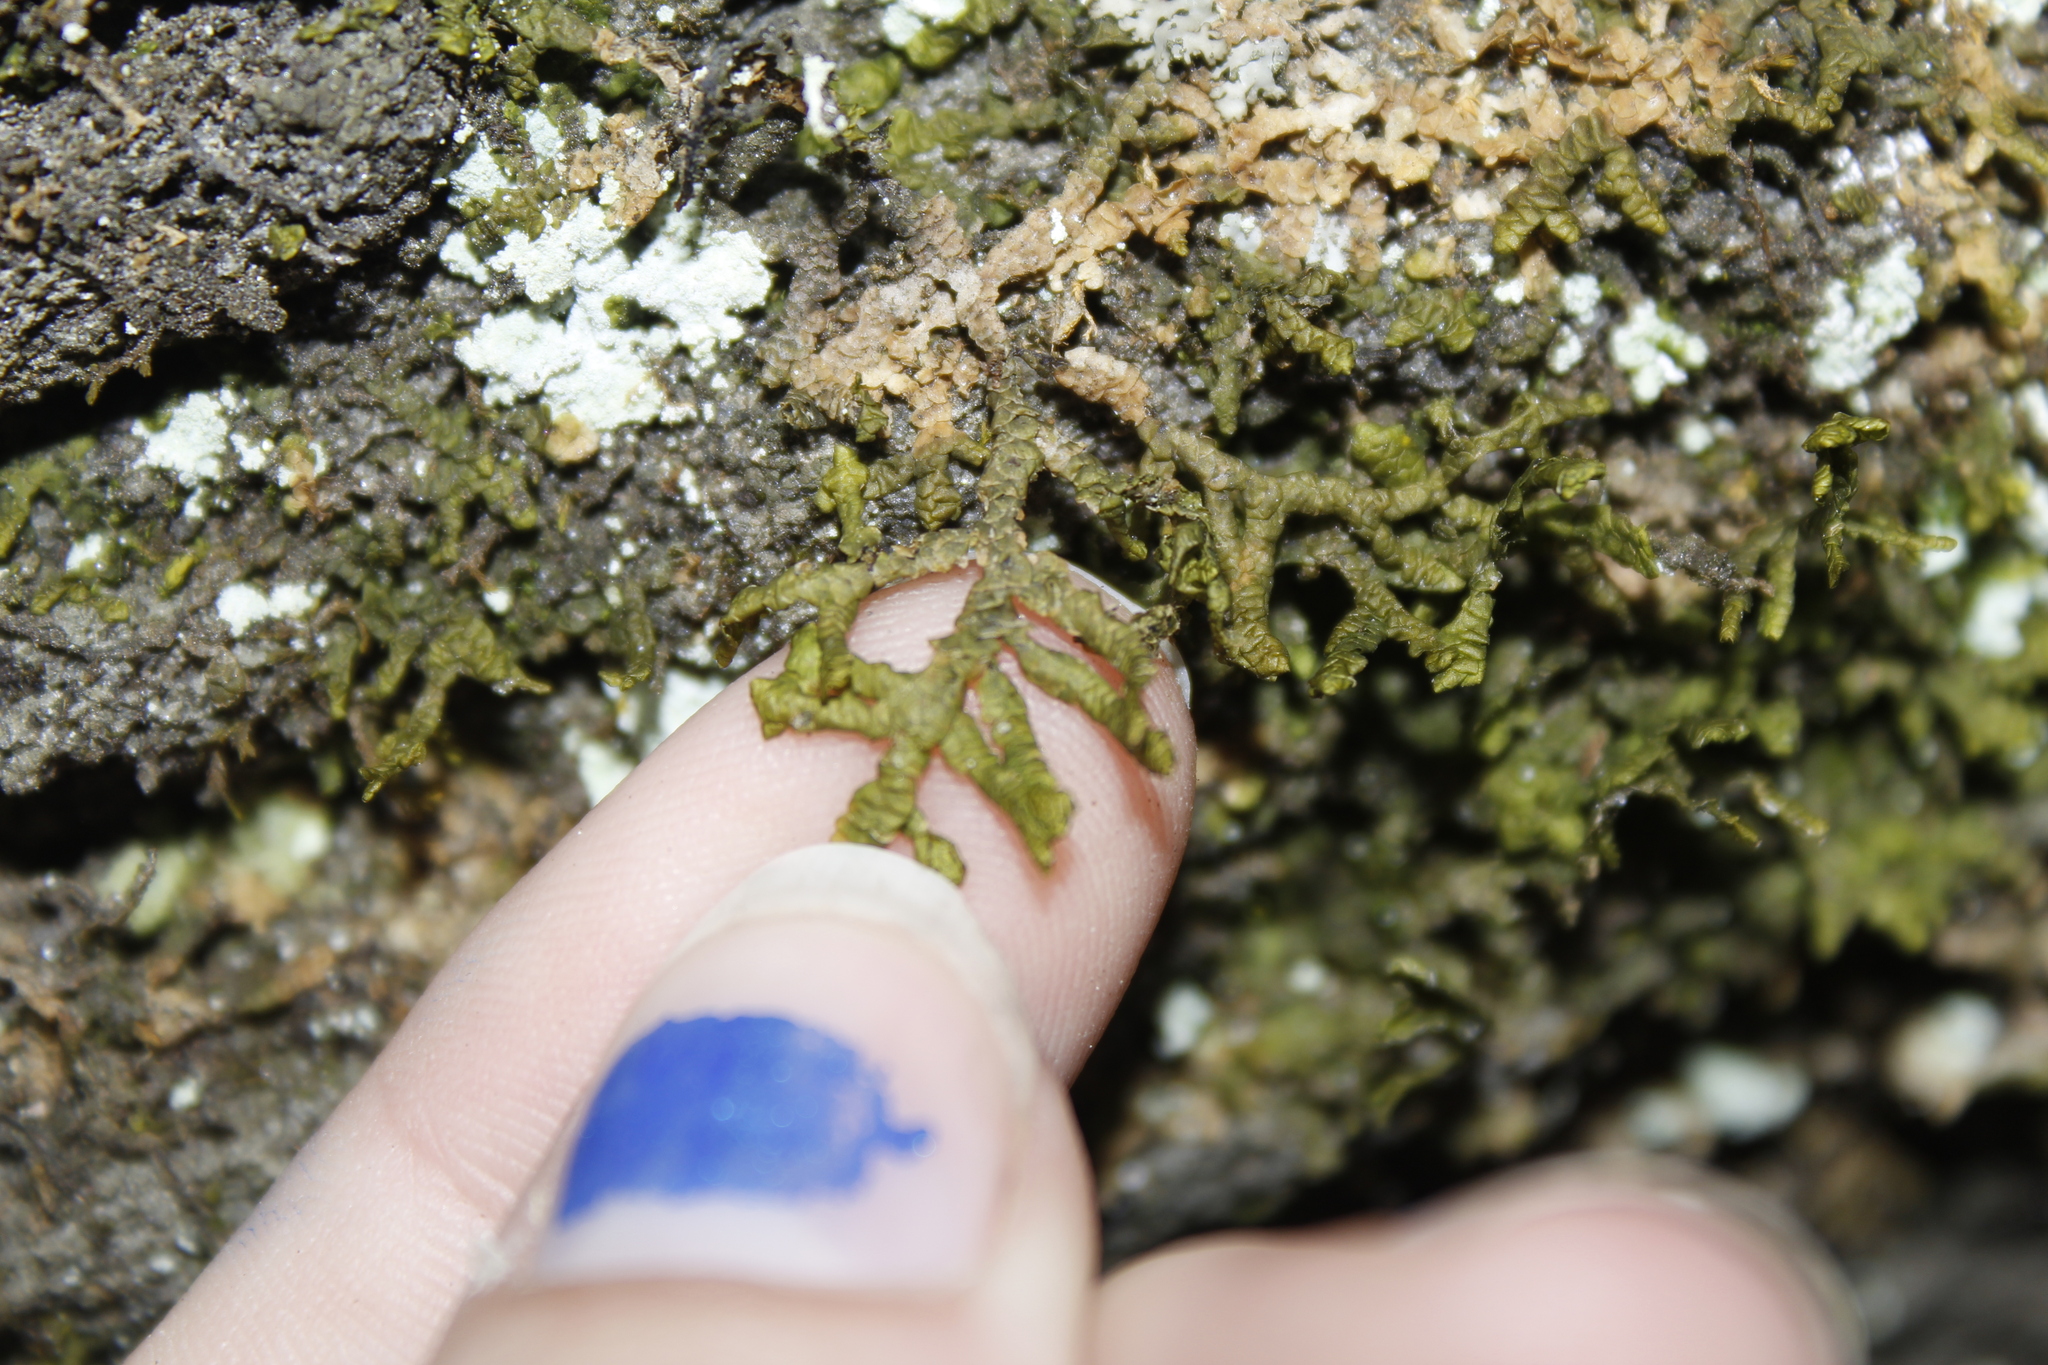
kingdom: Plantae
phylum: Marchantiophyta
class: Jungermanniopsida
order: Porellales
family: Porellaceae
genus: Porella
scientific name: Porella platyphylla
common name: Wall scalewort
